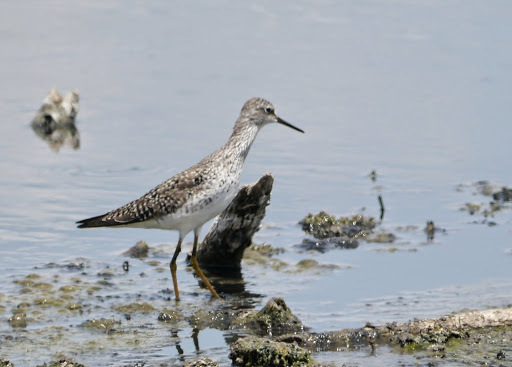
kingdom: Animalia
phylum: Chordata
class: Aves
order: Charadriiformes
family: Scolopacidae
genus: Tringa
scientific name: Tringa flavipes
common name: Lesser yellowlegs
